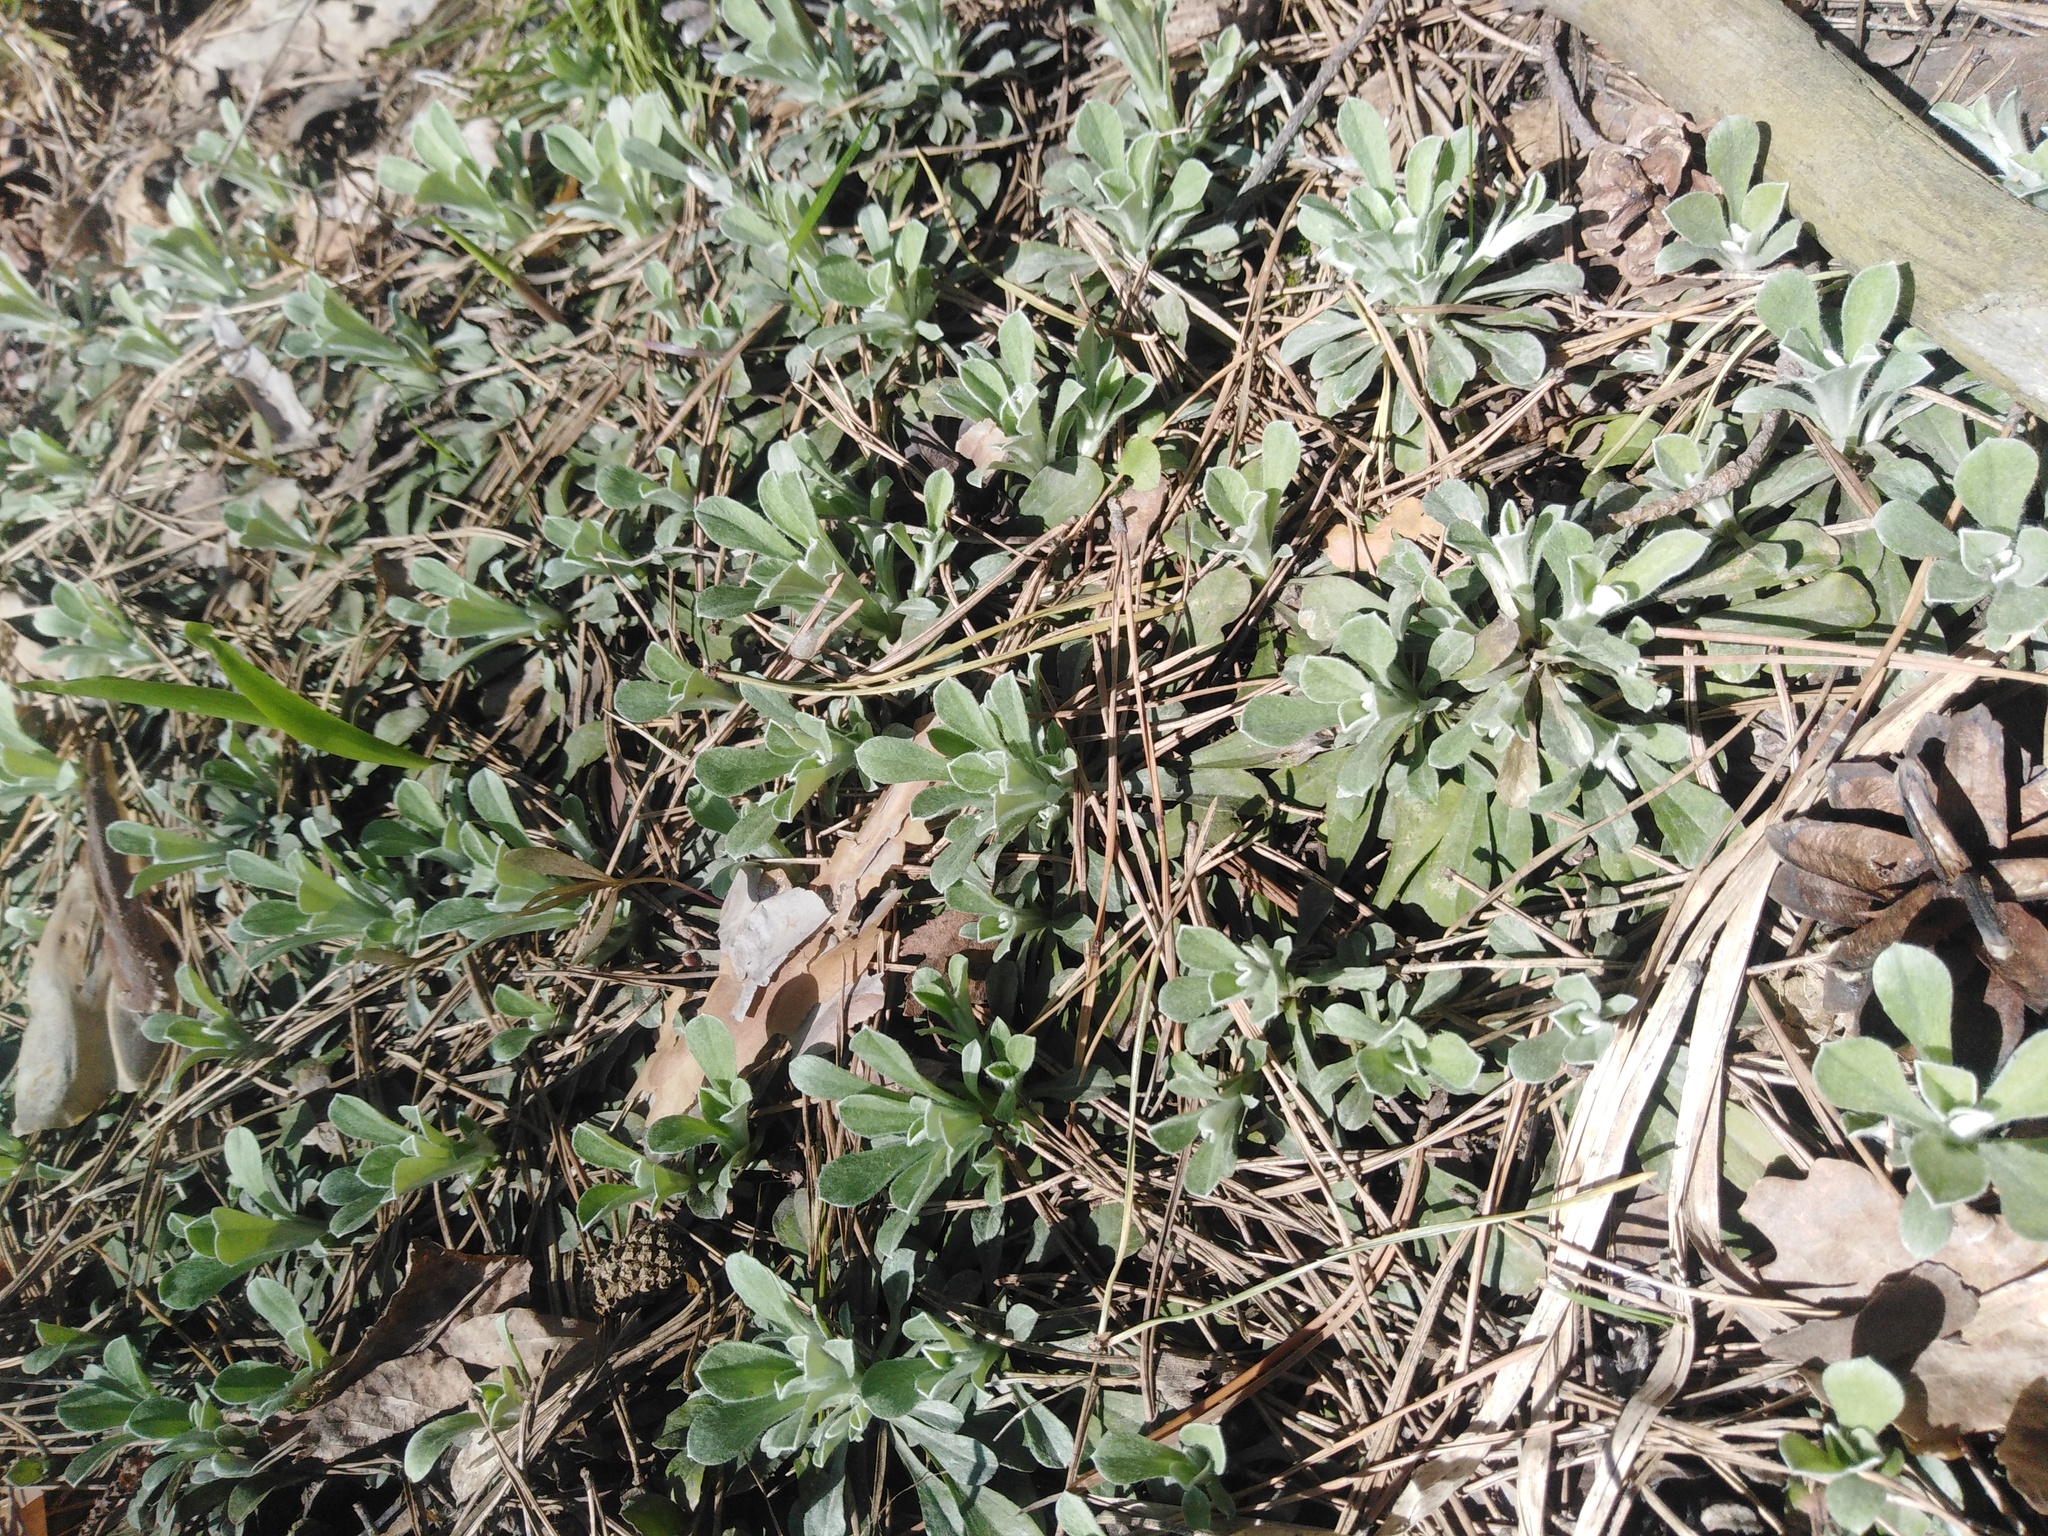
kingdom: Plantae
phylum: Tracheophyta
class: Magnoliopsida
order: Asterales
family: Asteraceae
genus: Antennaria
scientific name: Antennaria dioica
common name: Mountain everlasting
